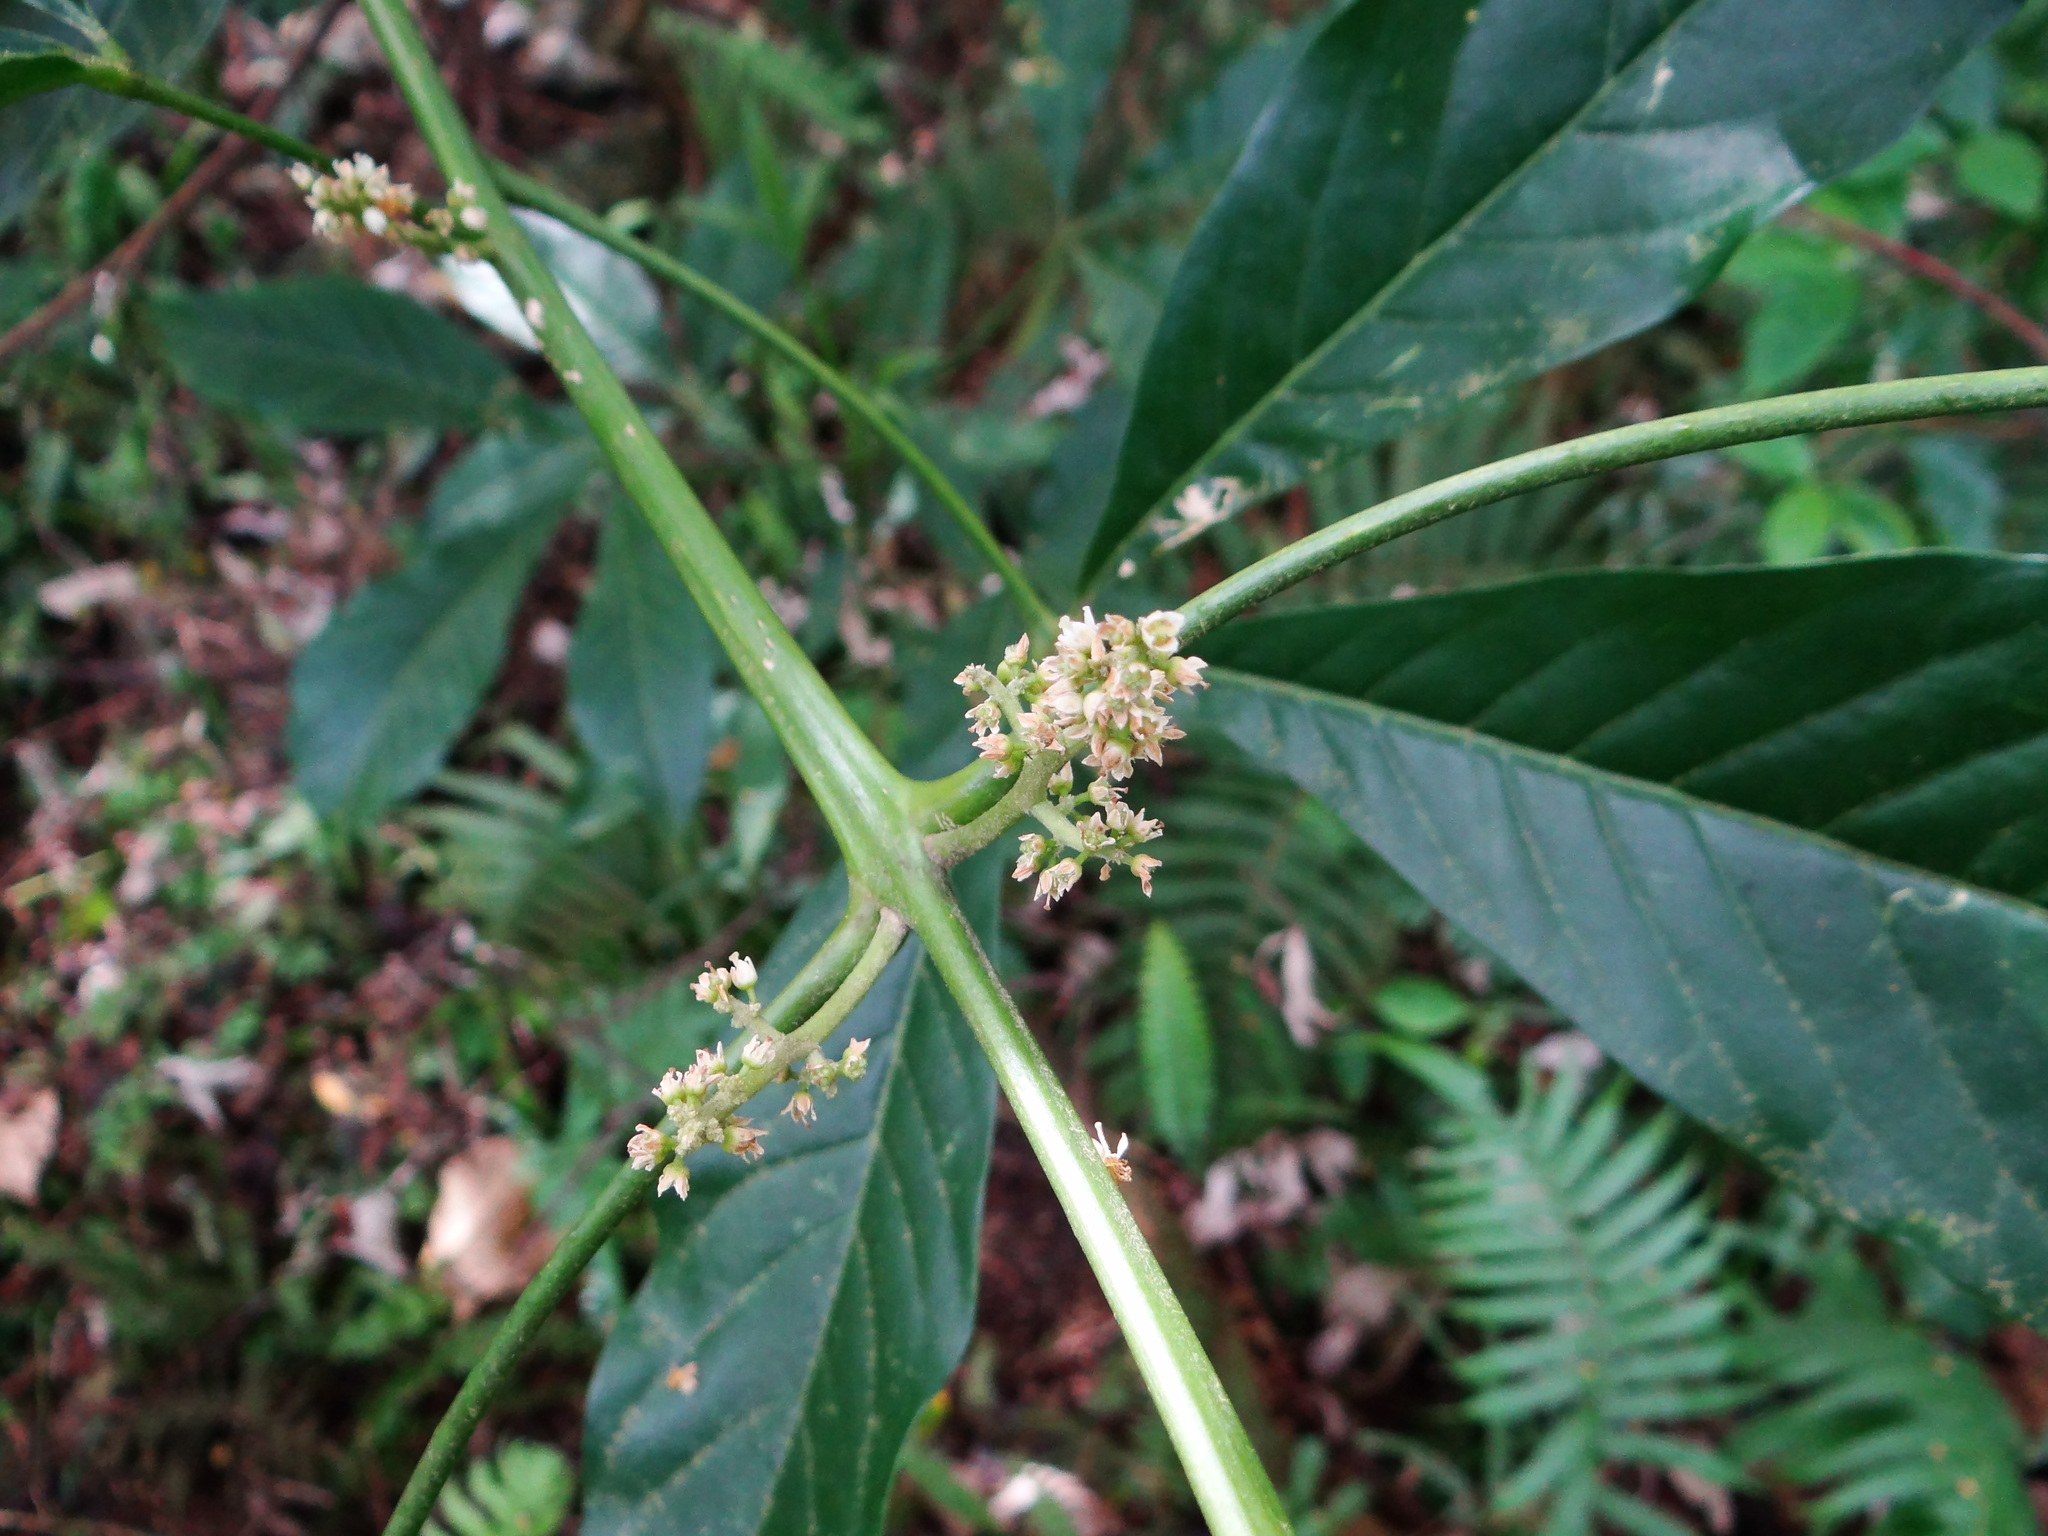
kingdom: Plantae
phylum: Tracheophyta
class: Magnoliopsida
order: Sapindales
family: Rutaceae
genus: Melicope
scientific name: Melicope semecarpifolia
